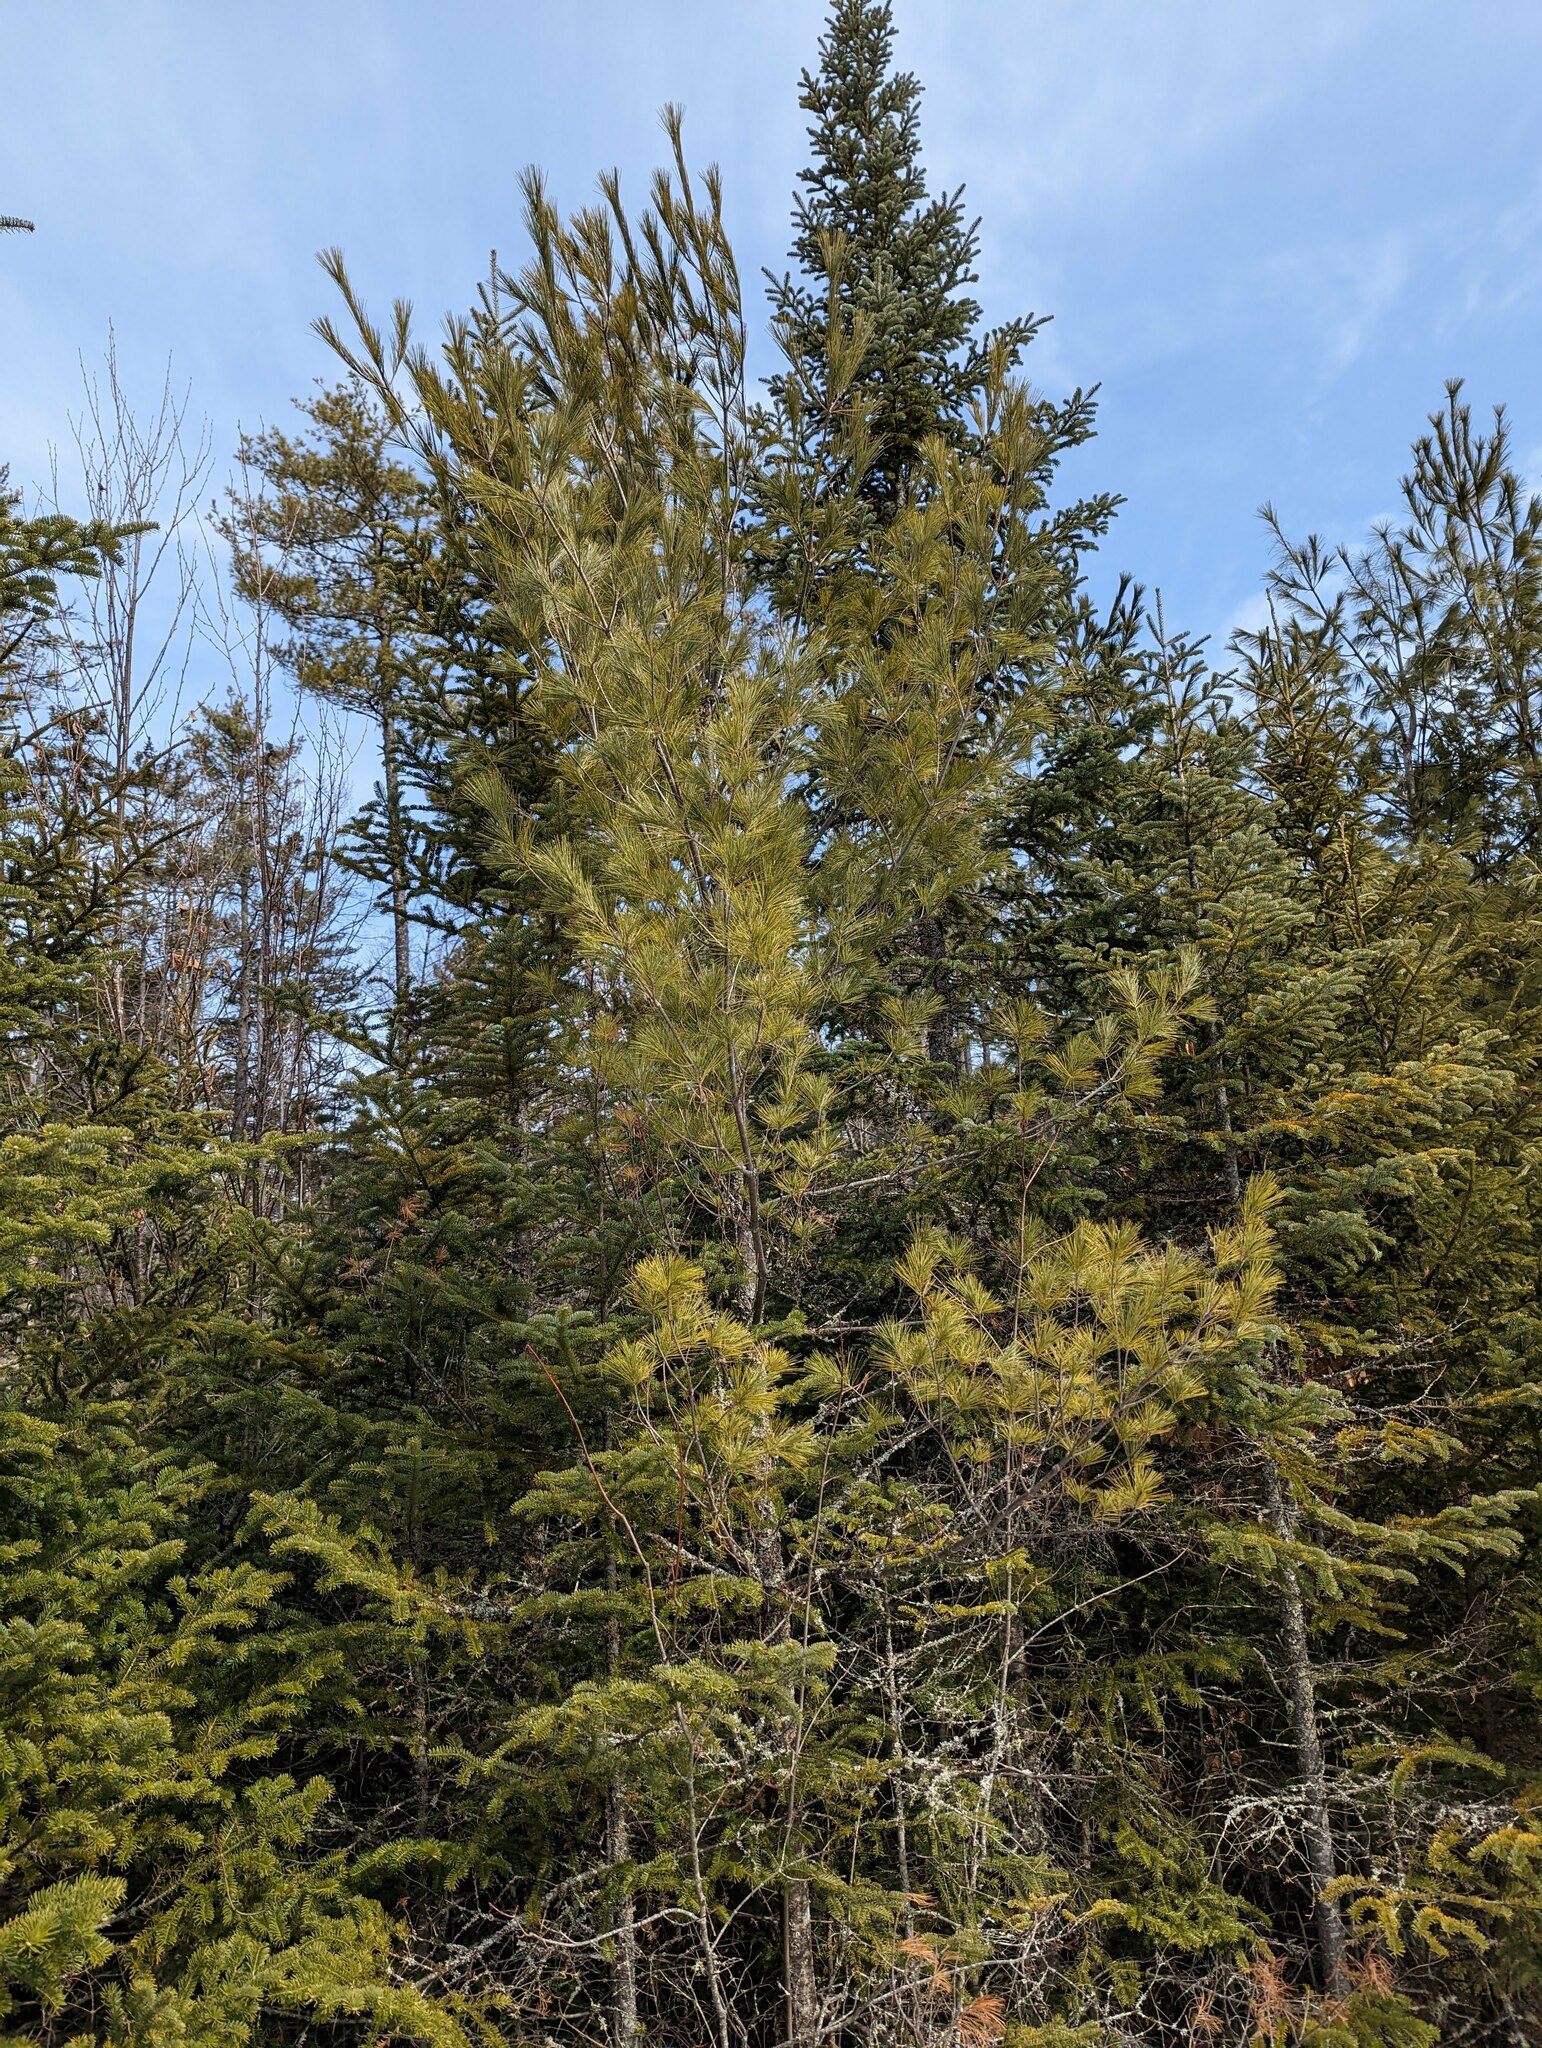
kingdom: Plantae
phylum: Tracheophyta
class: Pinopsida
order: Pinales
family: Pinaceae
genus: Pinus
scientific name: Pinus strobus
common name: Weymouth pine
